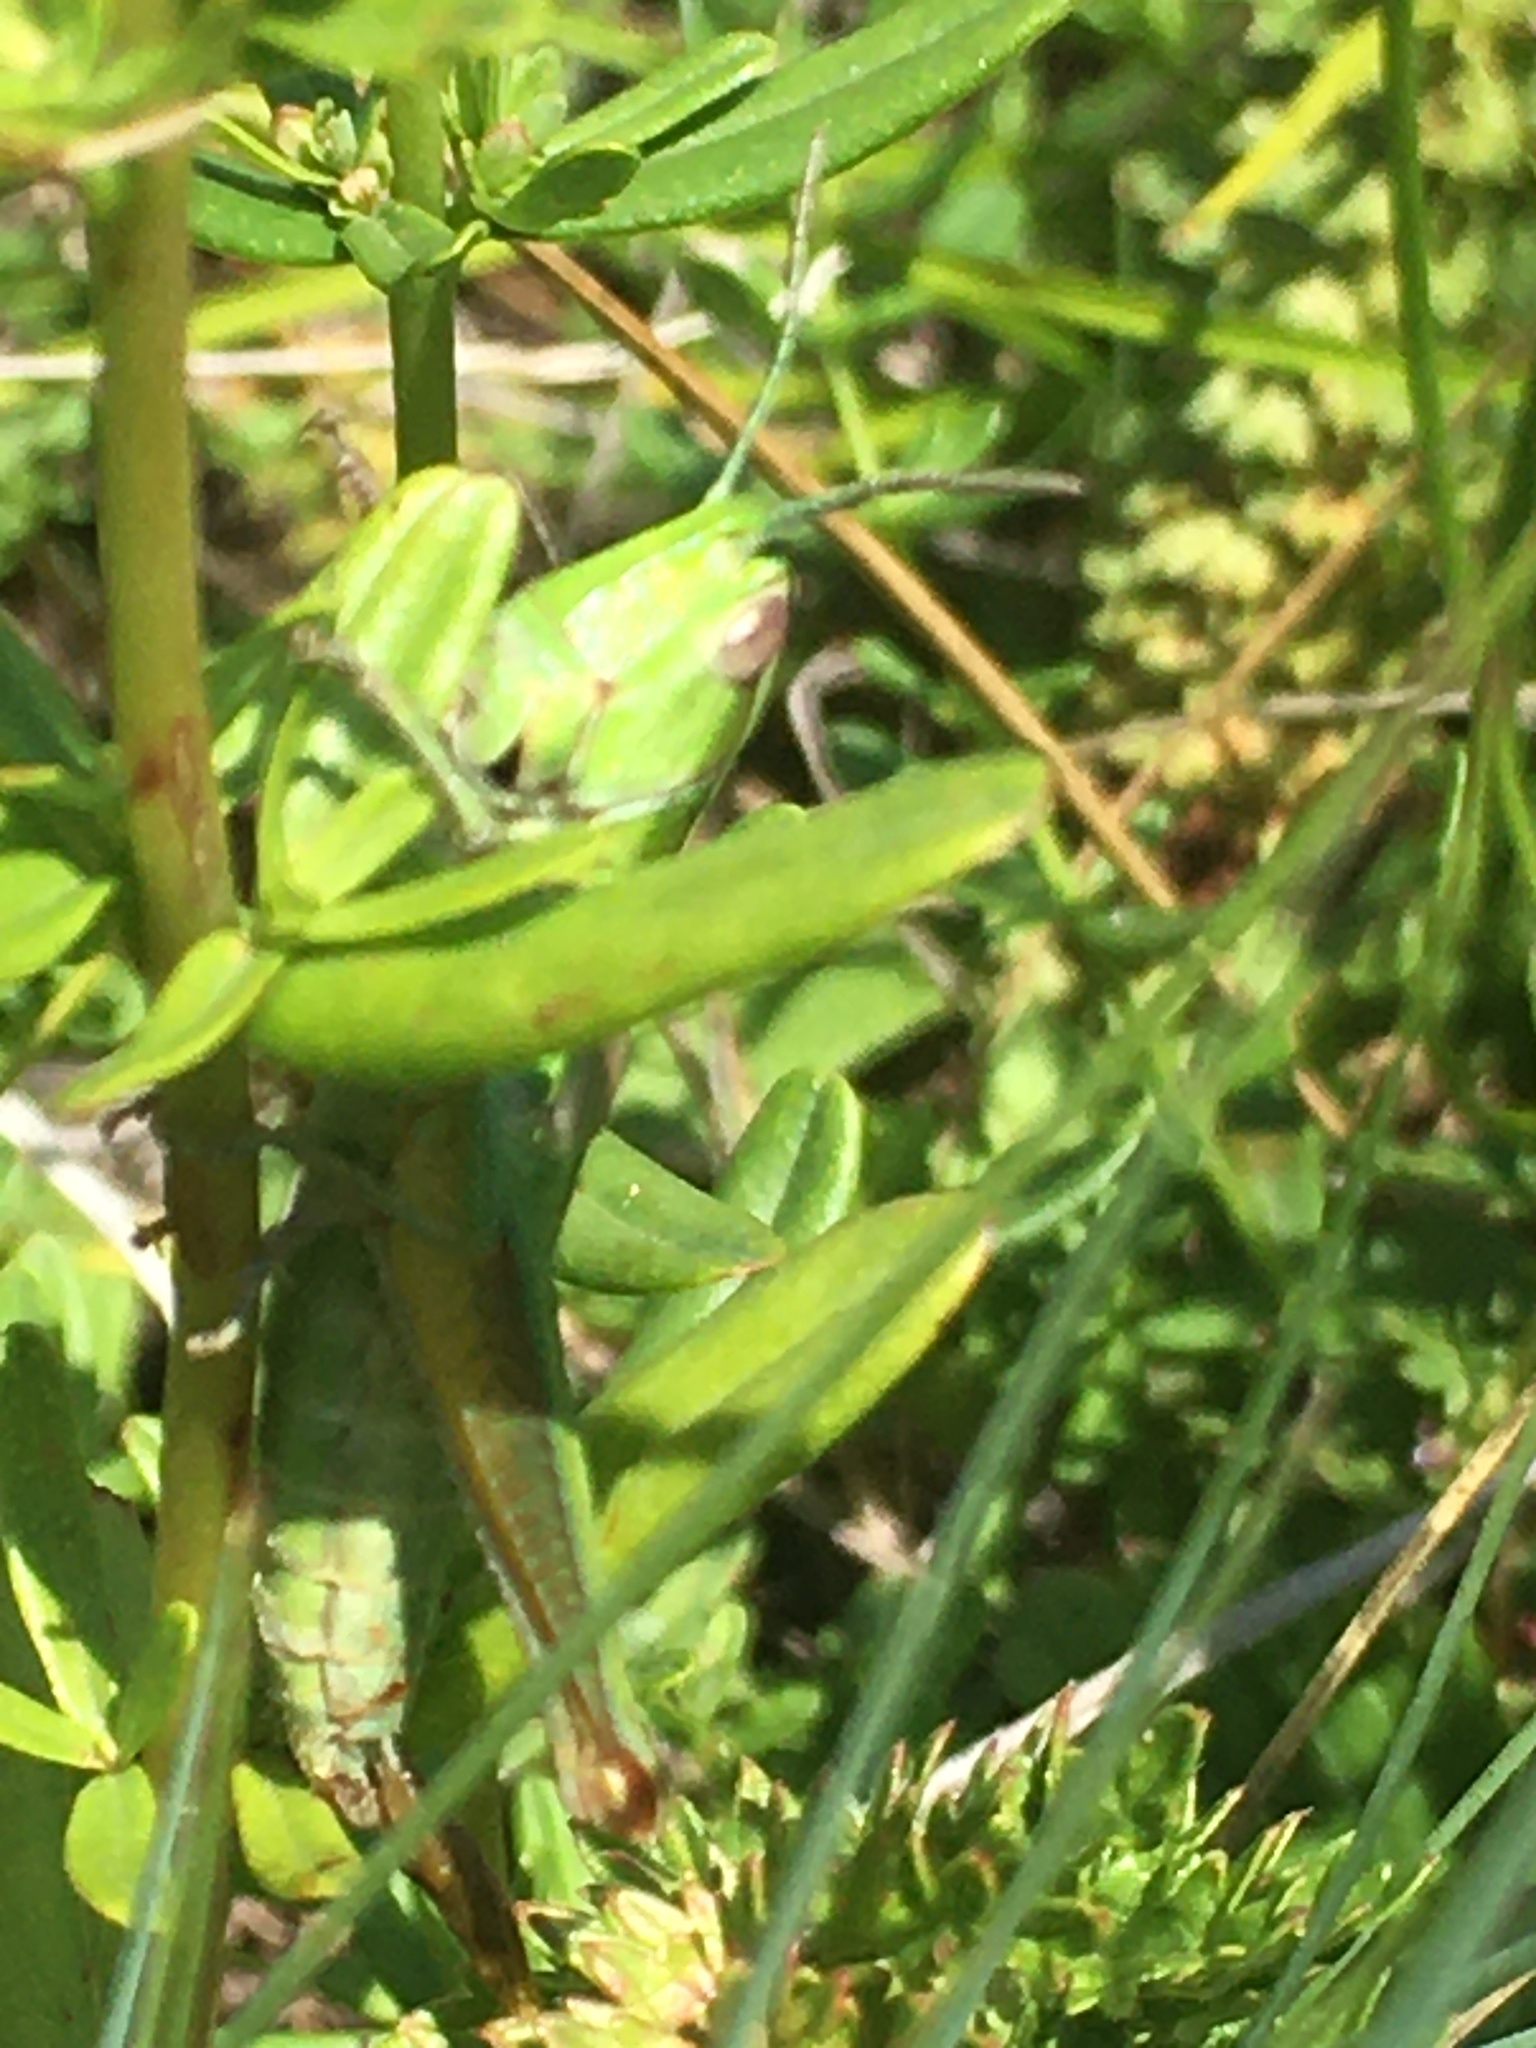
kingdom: Animalia
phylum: Arthropoda
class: Insecta
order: Orthoptera
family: Acrididae
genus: Euthystira
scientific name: Euthystira brachyptera
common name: Small gold grasshopper
